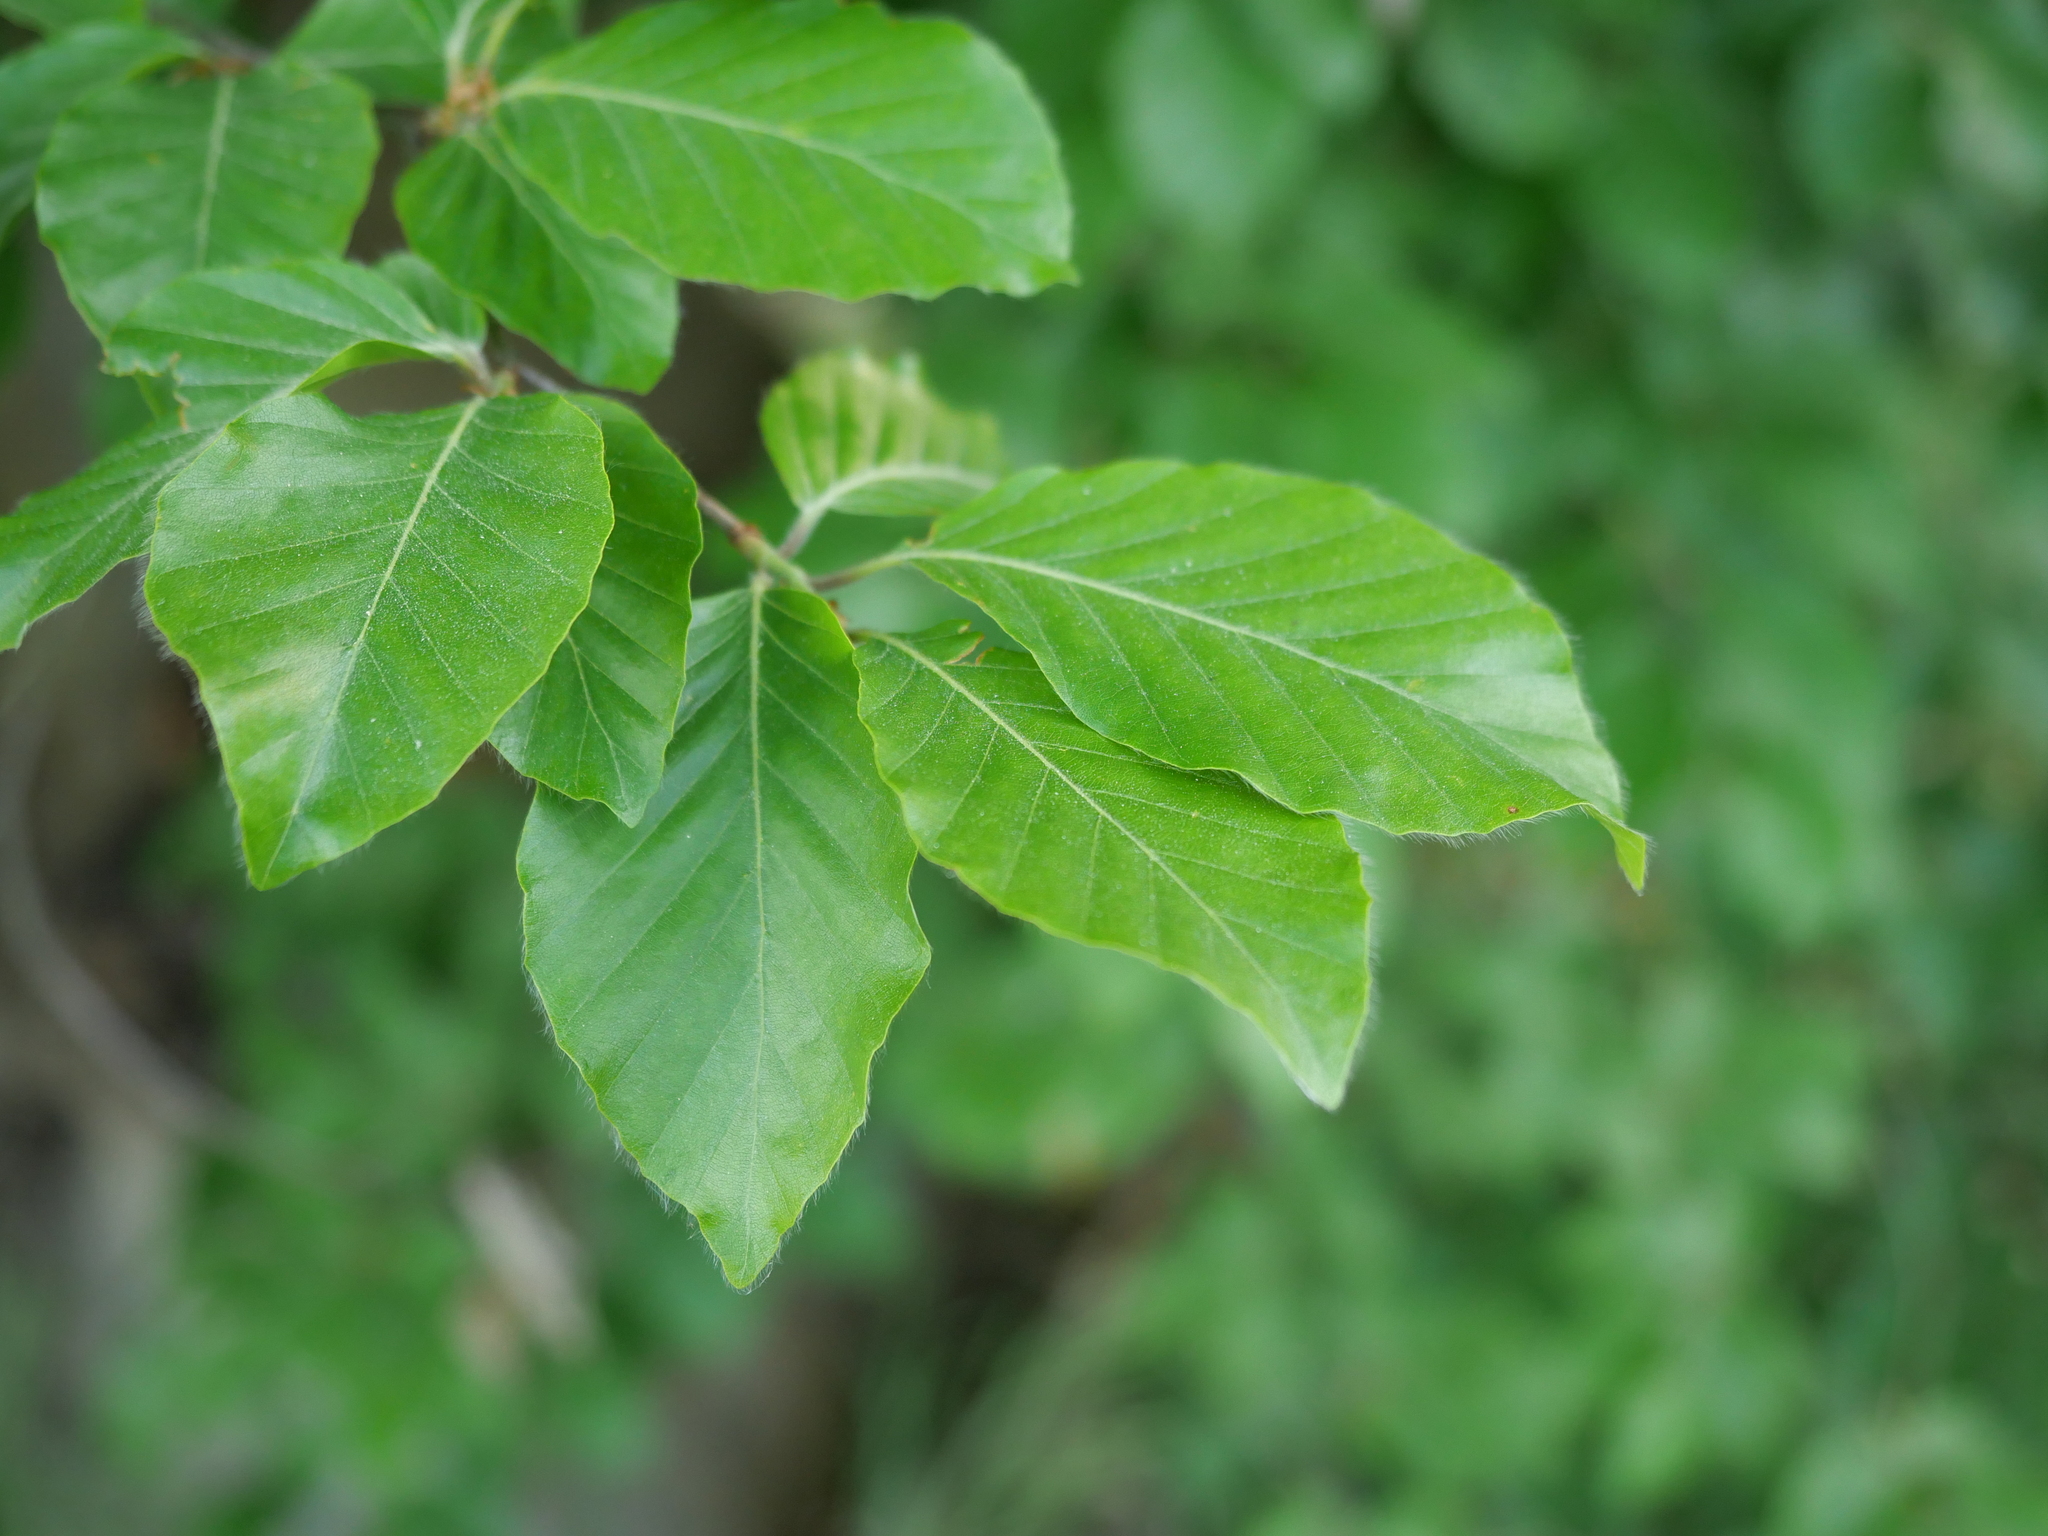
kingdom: Plantae
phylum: Tracheophyta
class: Magnoliopsida
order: Fagales
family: Fagaceae
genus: Fagus
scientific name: Fagus sylvatica
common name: Beech
